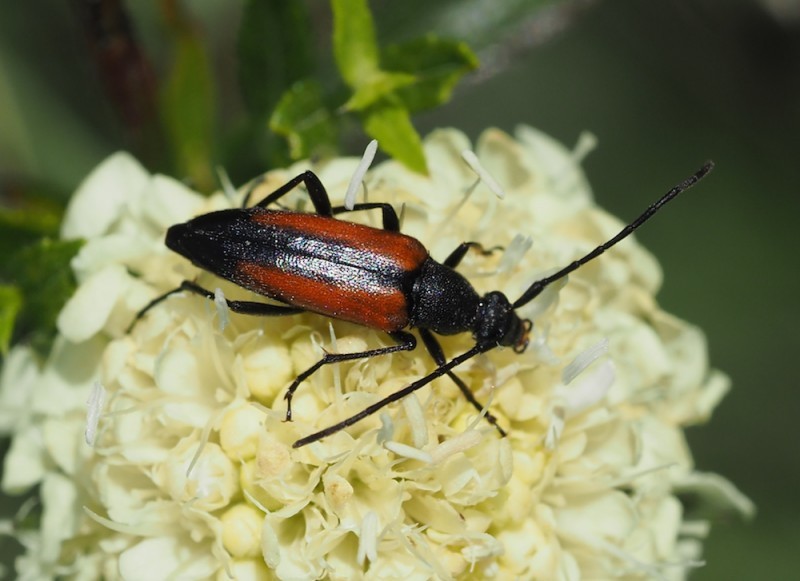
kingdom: Animalia
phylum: Arthropoda
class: Insecta
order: Coleoptera
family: Cerambycidae
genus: Stenurella
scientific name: Stenurella melanura
